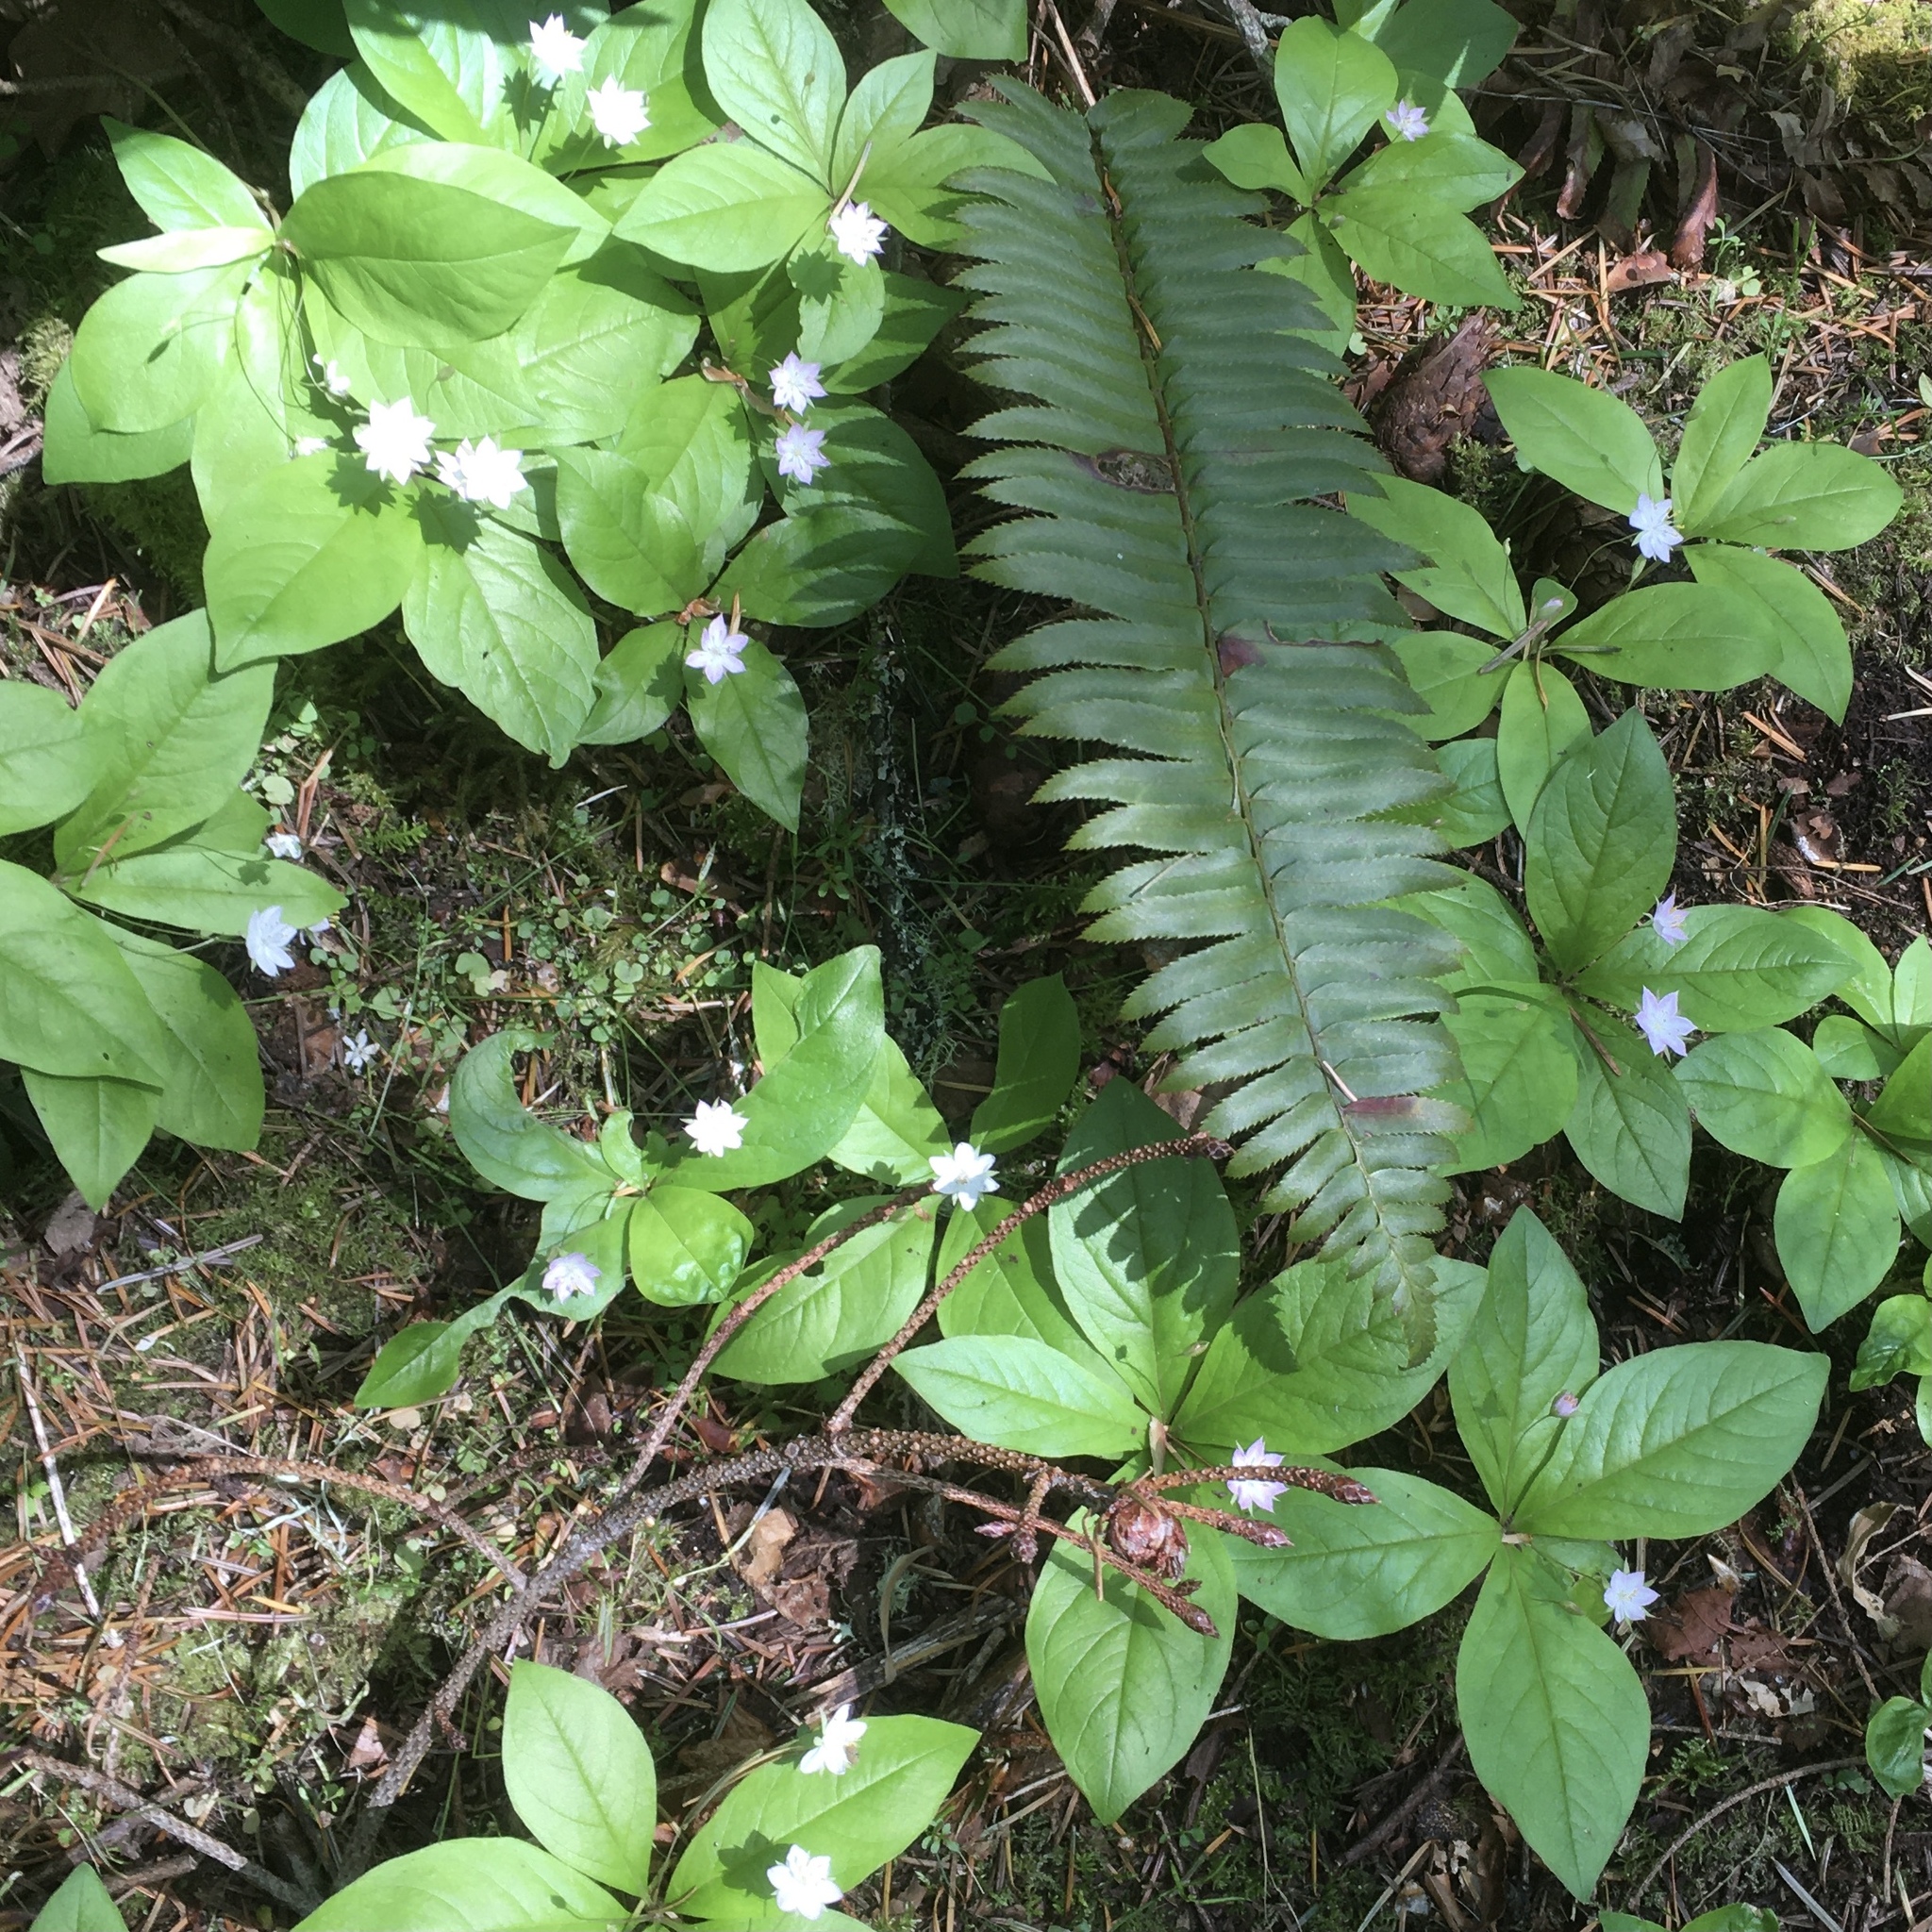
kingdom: Plantae
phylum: Tracheophyta
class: Magnoliopsida
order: Ericales
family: Primulaceae
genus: Lysimachia
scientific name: Lysimachia latifolia
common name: Pacific starflower
